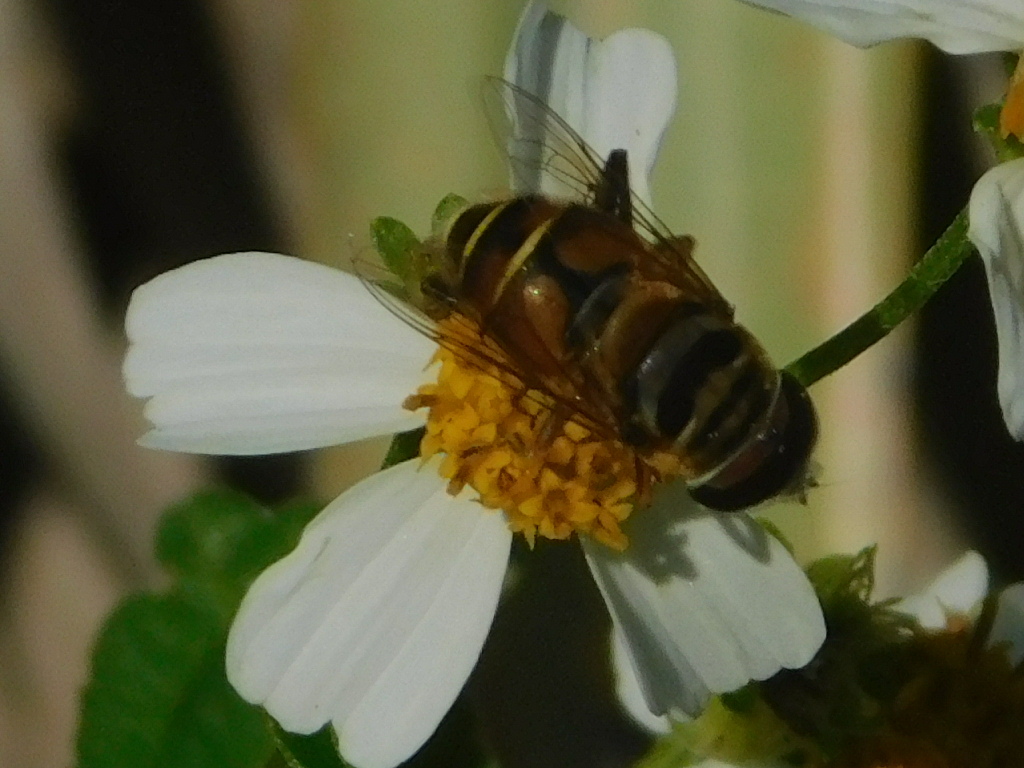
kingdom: Animalia
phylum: Arthropoda
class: Insecta
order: Diptera
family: Syrphidae
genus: Palpada
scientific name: Palpada vinetorum
